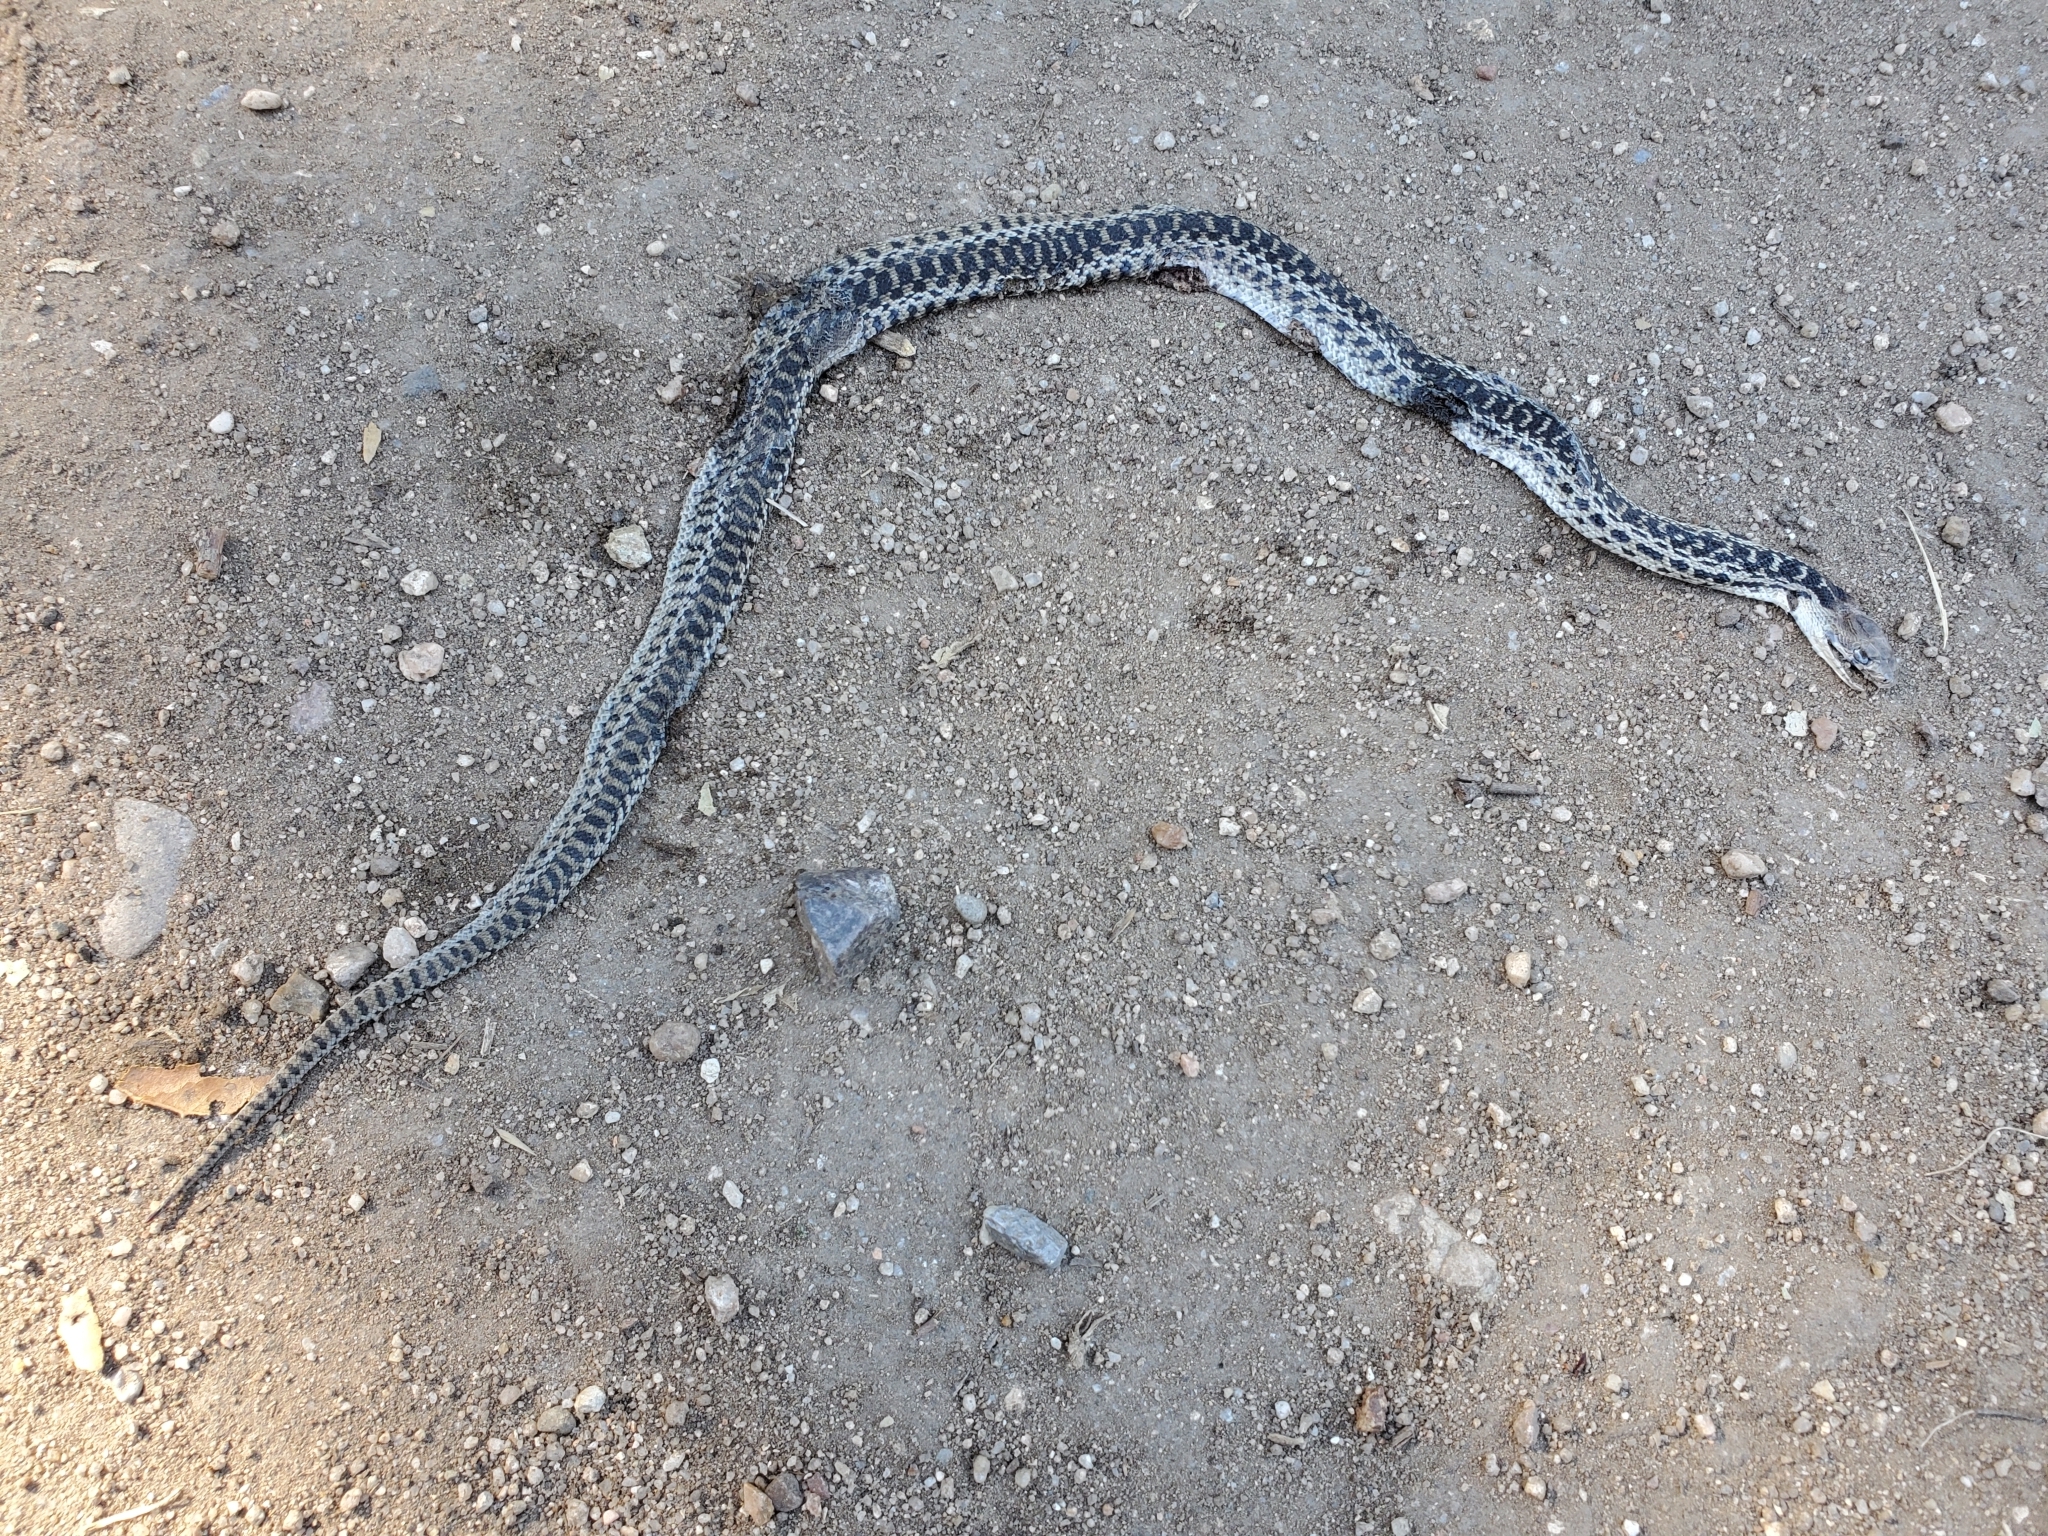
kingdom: Animalia
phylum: Chordata
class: Squamata
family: Colubridae
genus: Pituophis
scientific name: Pituophis catenifer
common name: Gopher snake
